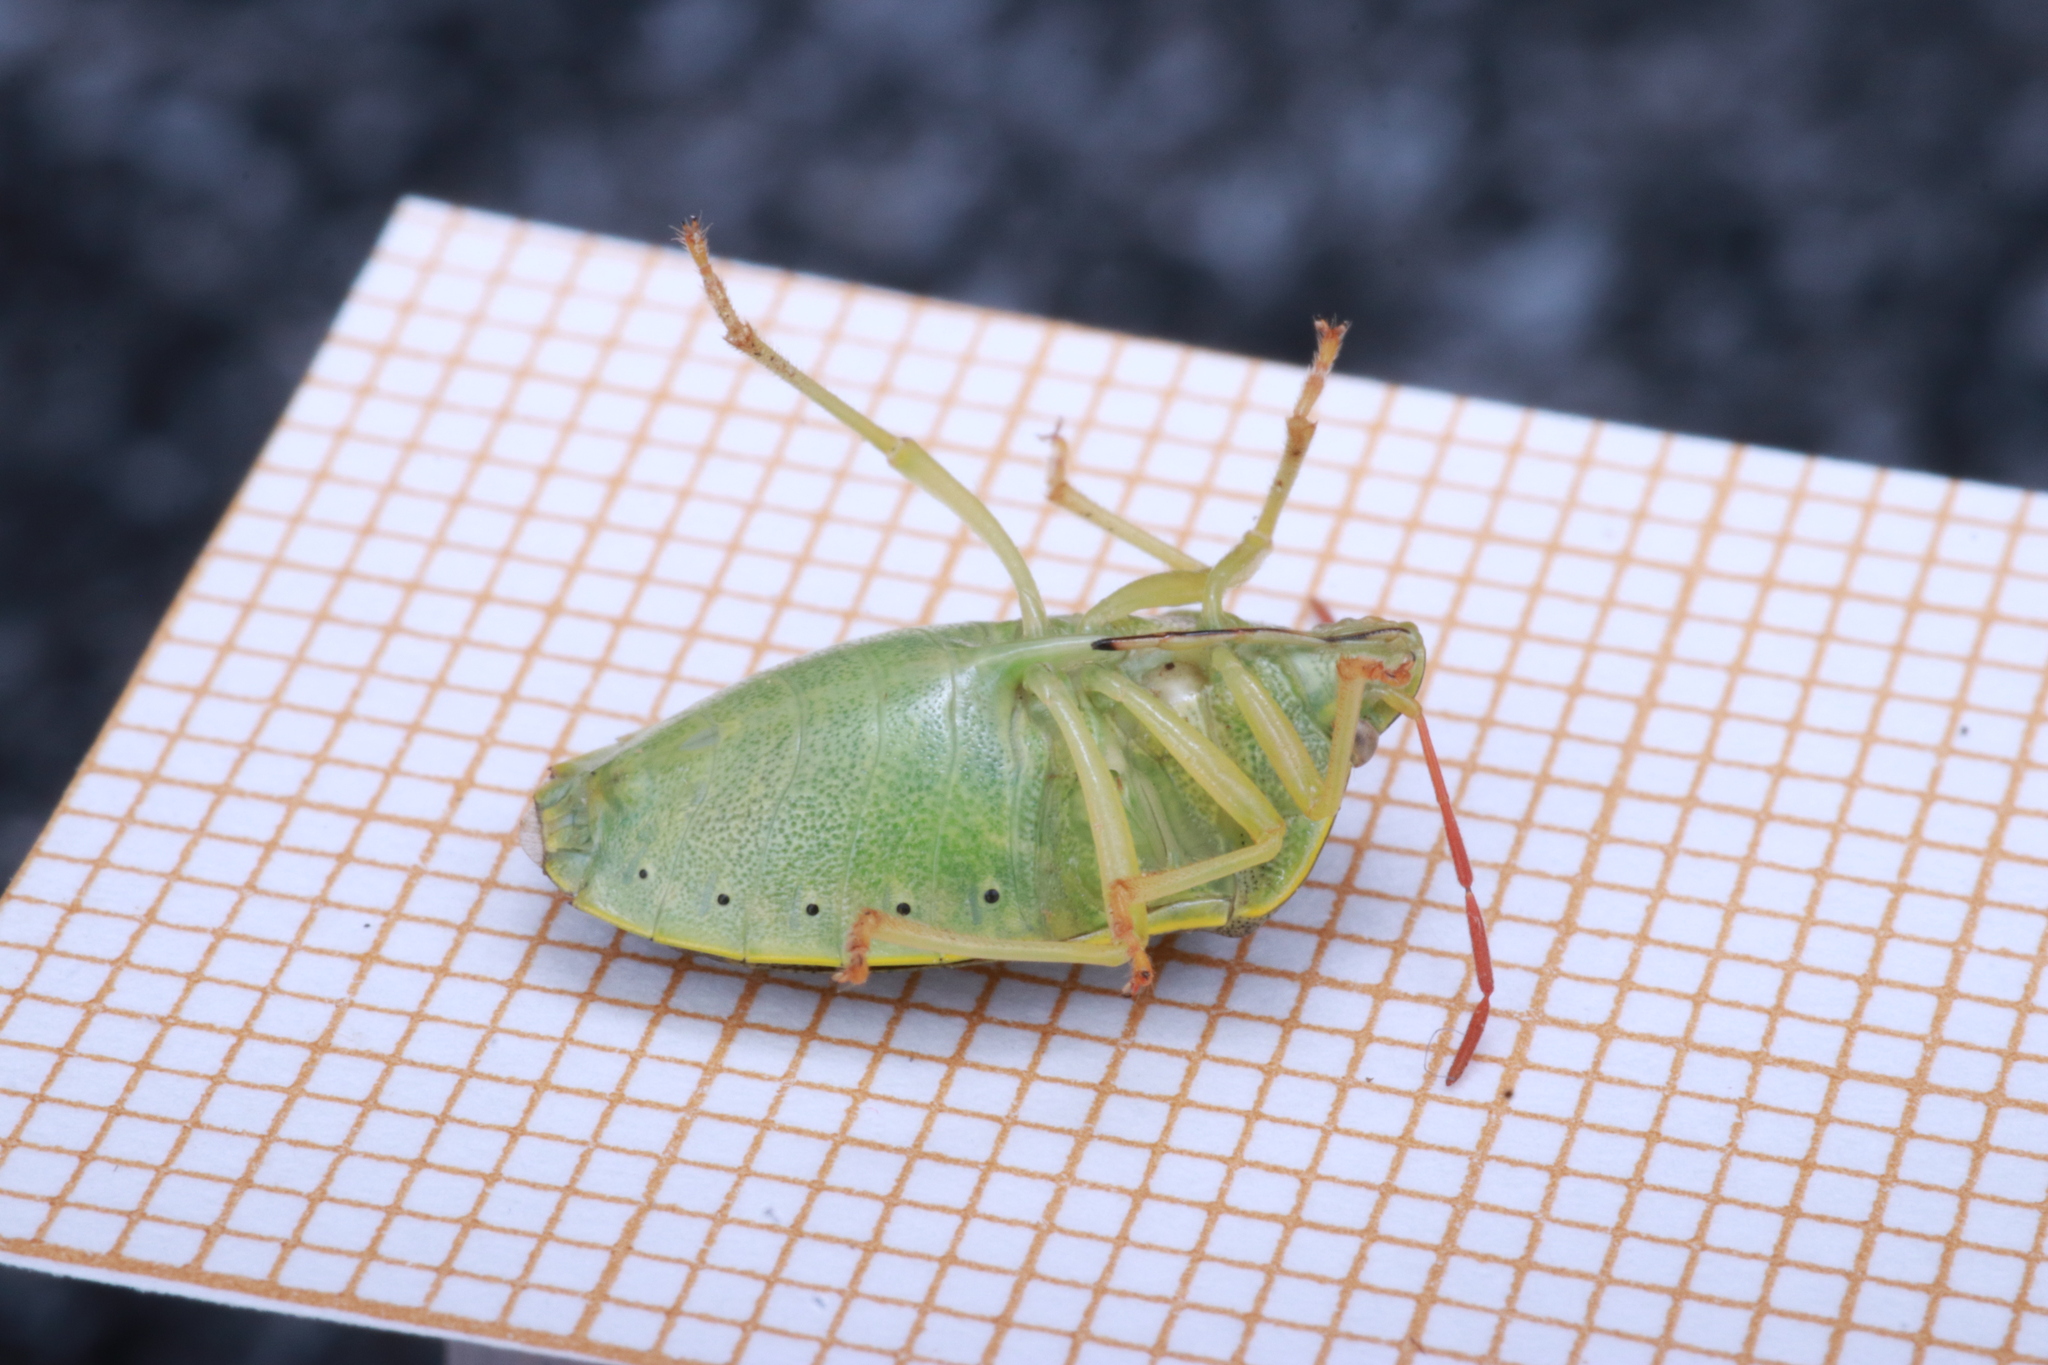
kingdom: Animalia
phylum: Arthropoda
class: Insecta
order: Hemiptera
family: Pentatomidae
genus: Piezodorus
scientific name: Piezodorus lituratus
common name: Stink bug
